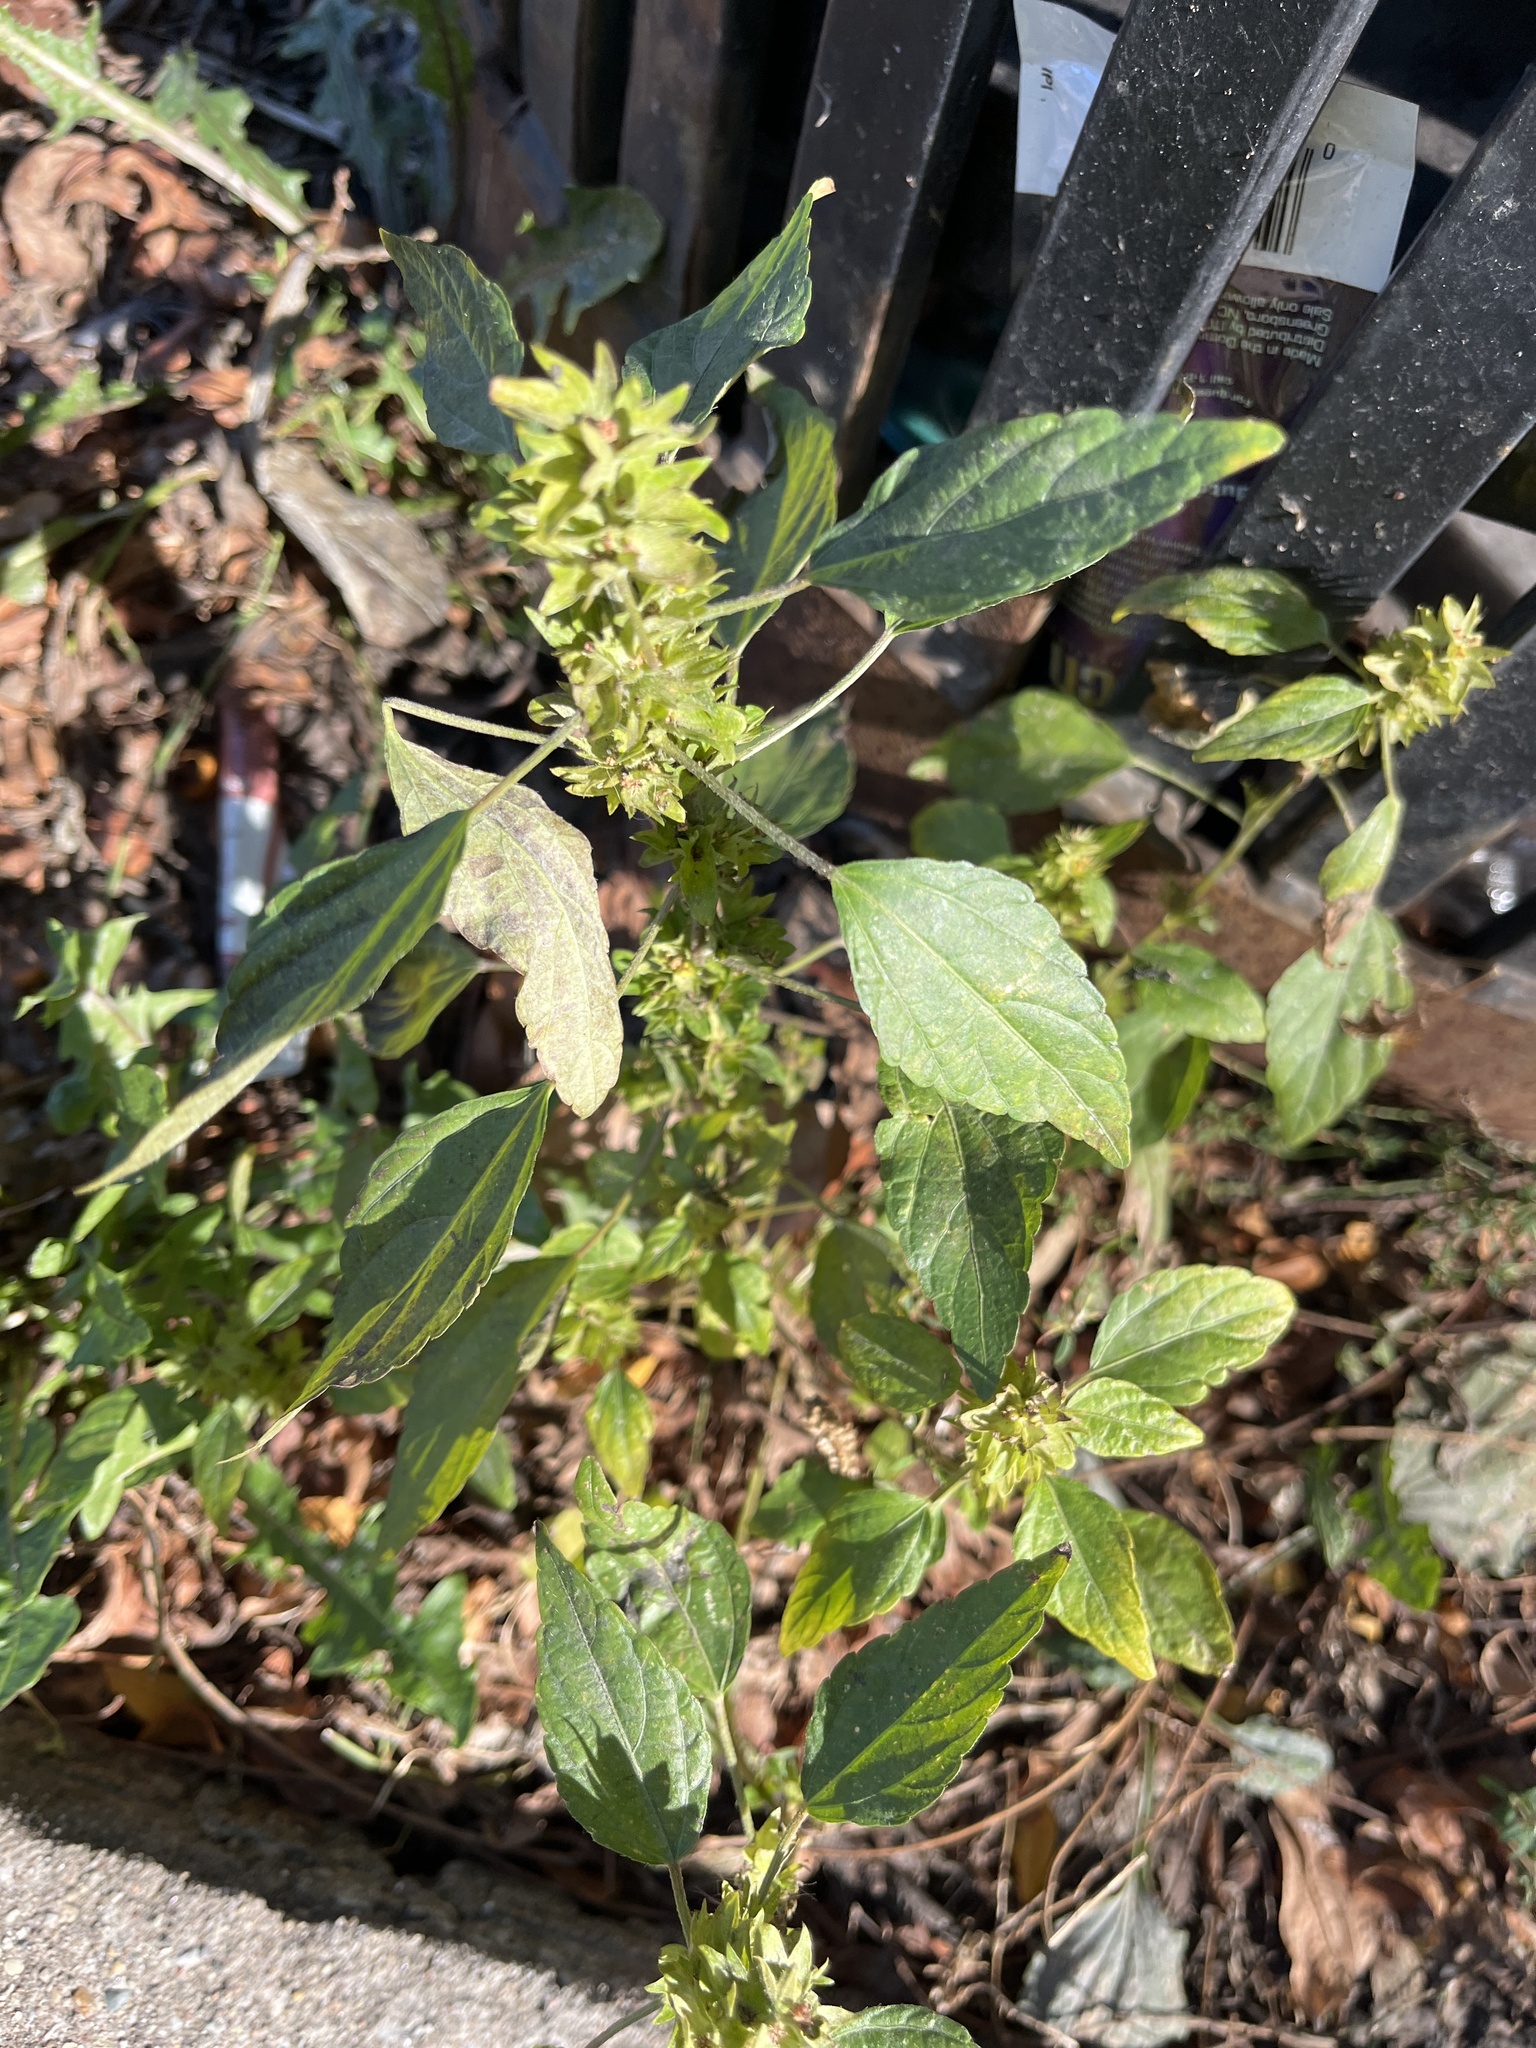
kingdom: Plantae
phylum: Tracheophyta
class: Magnoliopsida
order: Malpighiales
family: Euphorbiaceae
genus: Acalypha
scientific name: Acalypha rhomboidea
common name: Rhombic copperleaf
